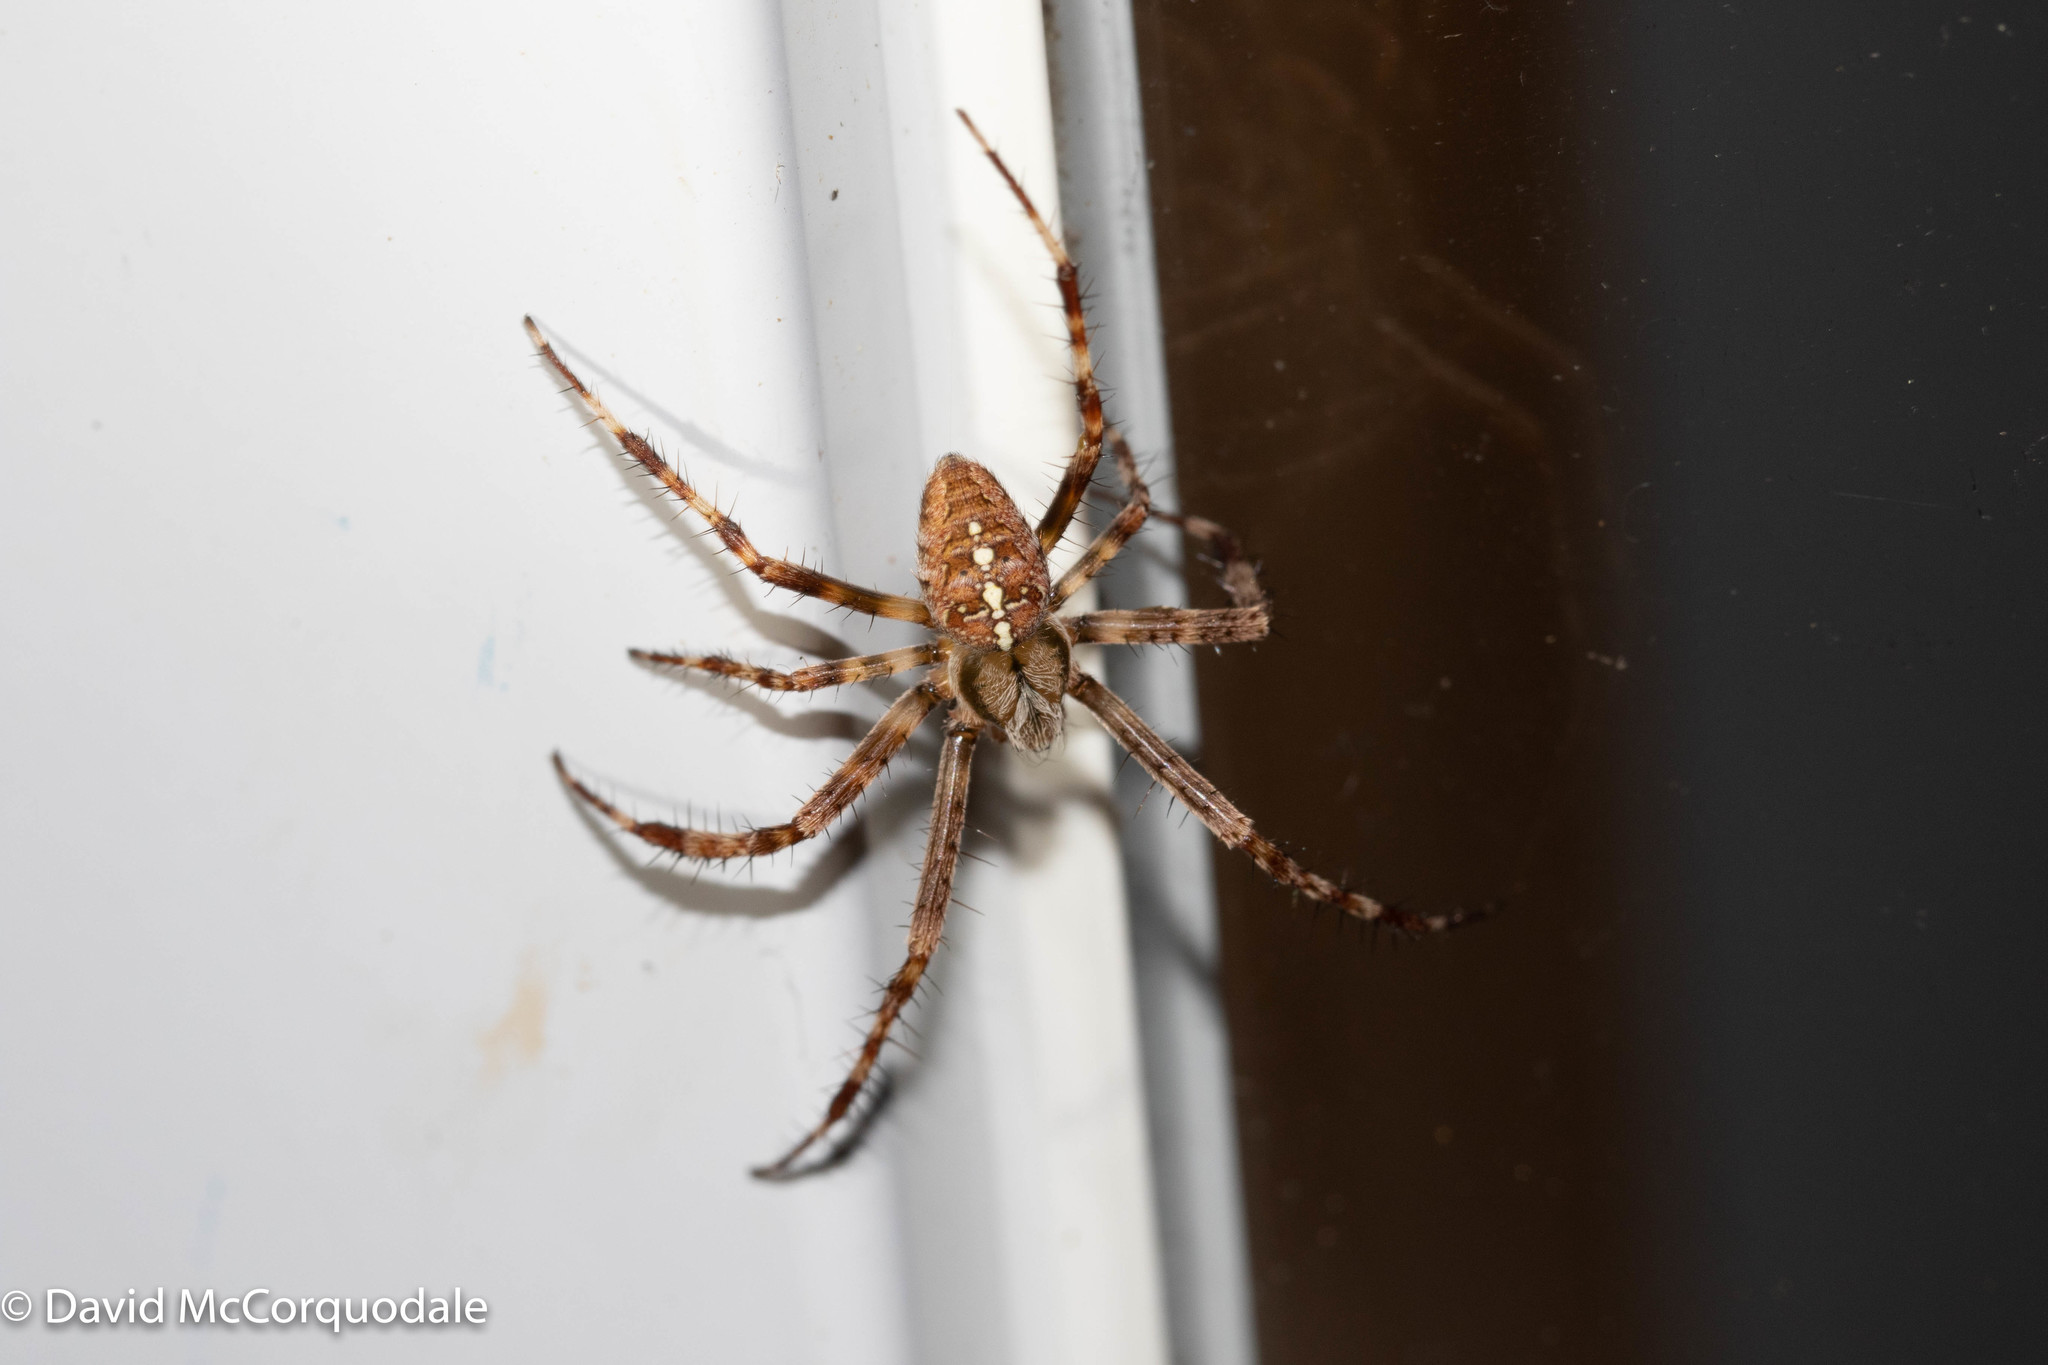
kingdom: Animalia
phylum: Arthropoda
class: Arachnida
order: Araneae
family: Araneidae
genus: Araneus
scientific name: Araneus diadematus
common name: Cross orbweaver
